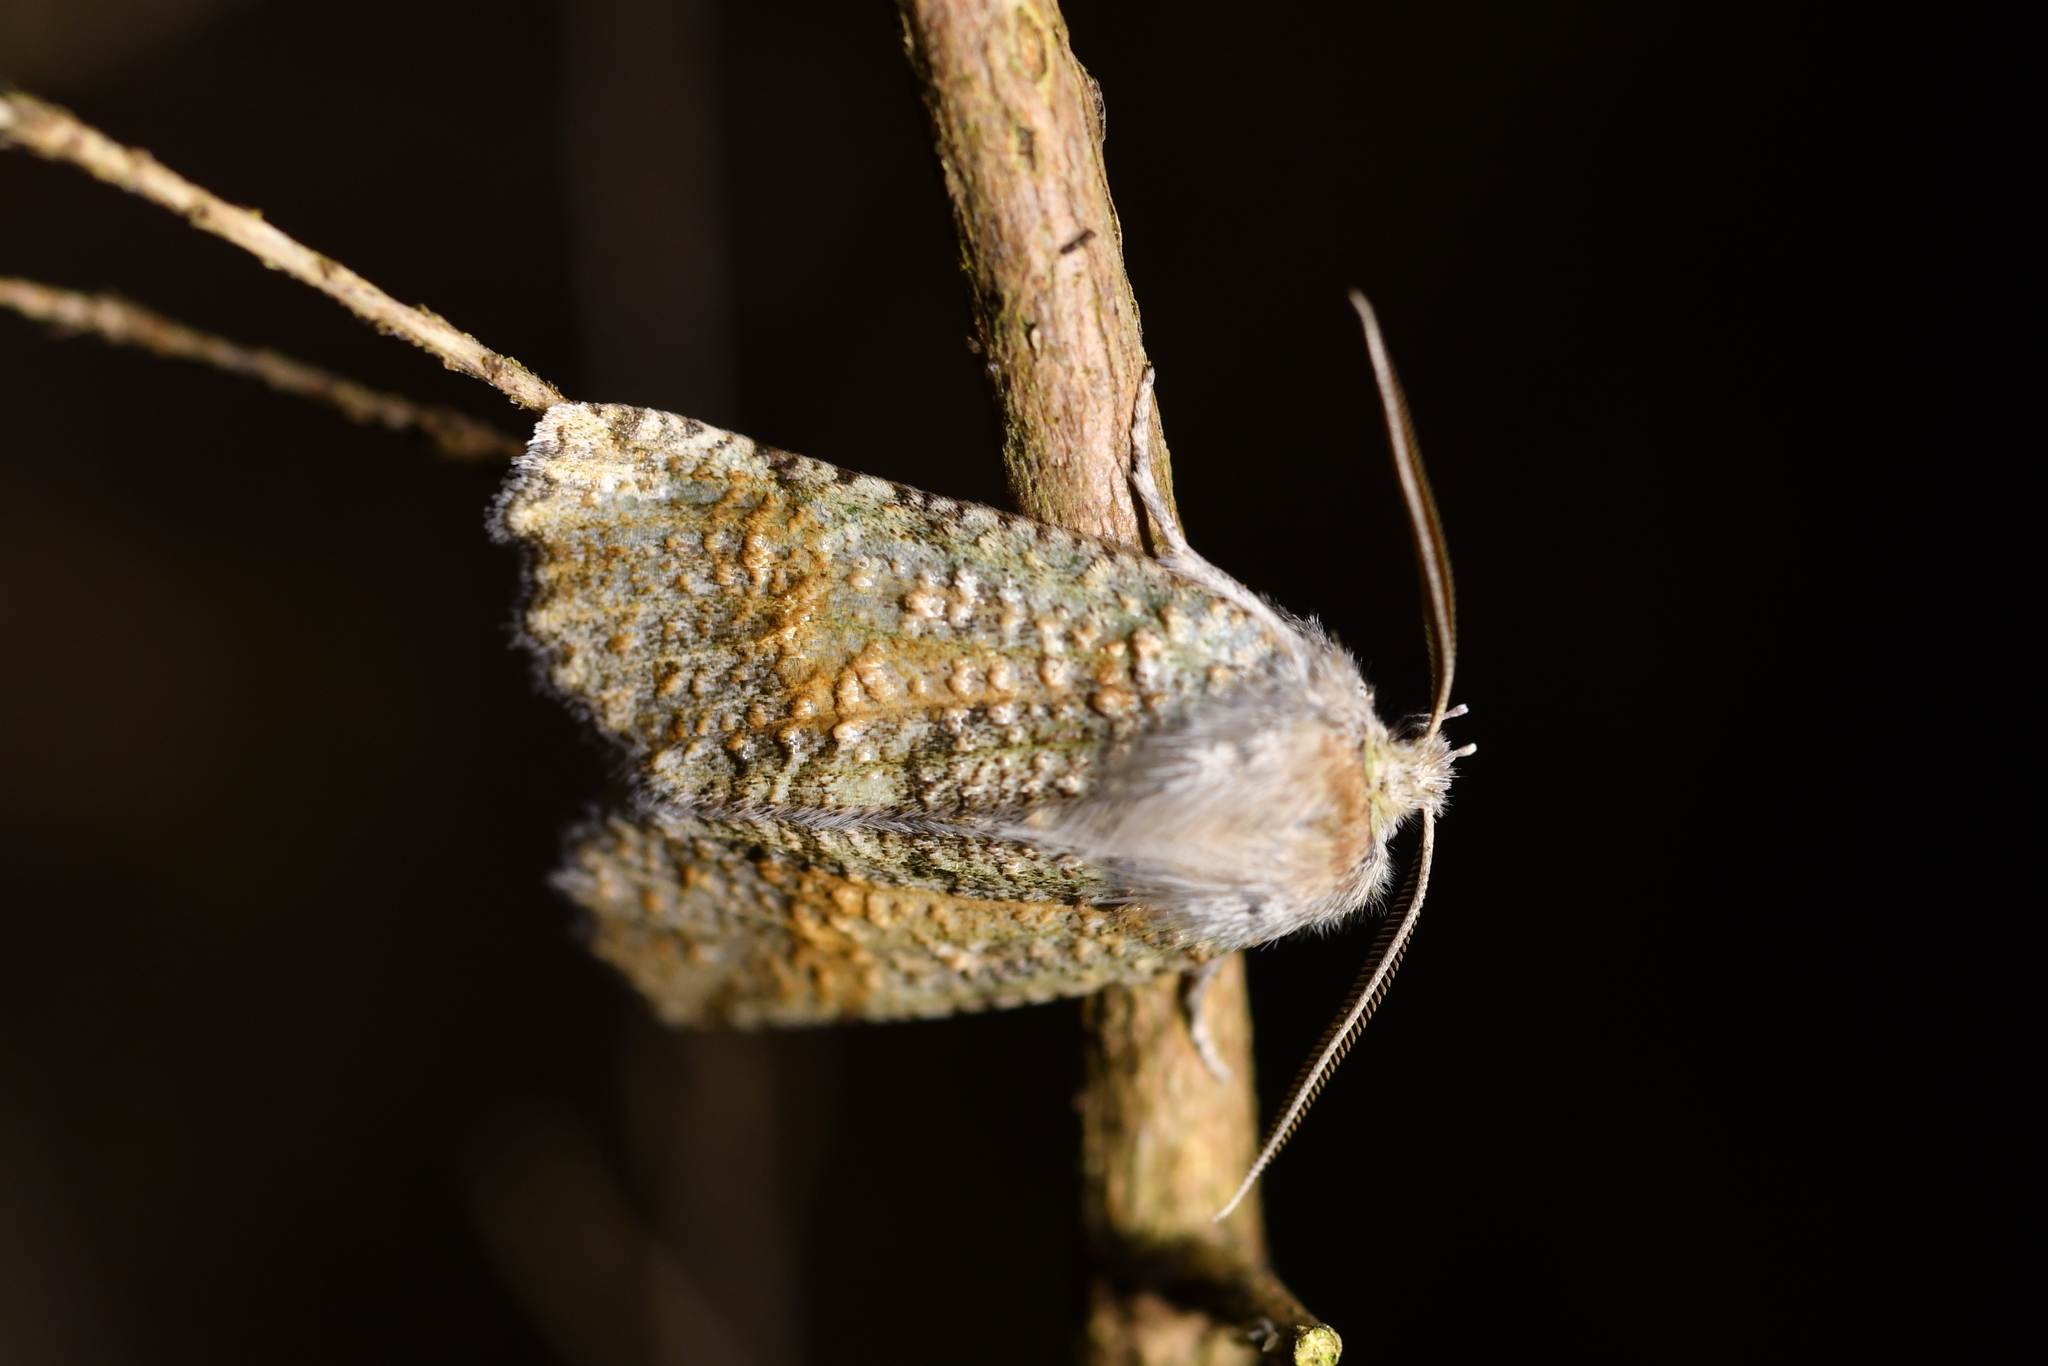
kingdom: Animalia
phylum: Arthropoda
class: Insecta
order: Lepidoptera
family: Geometridae
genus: Declana
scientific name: Declana floccosa
